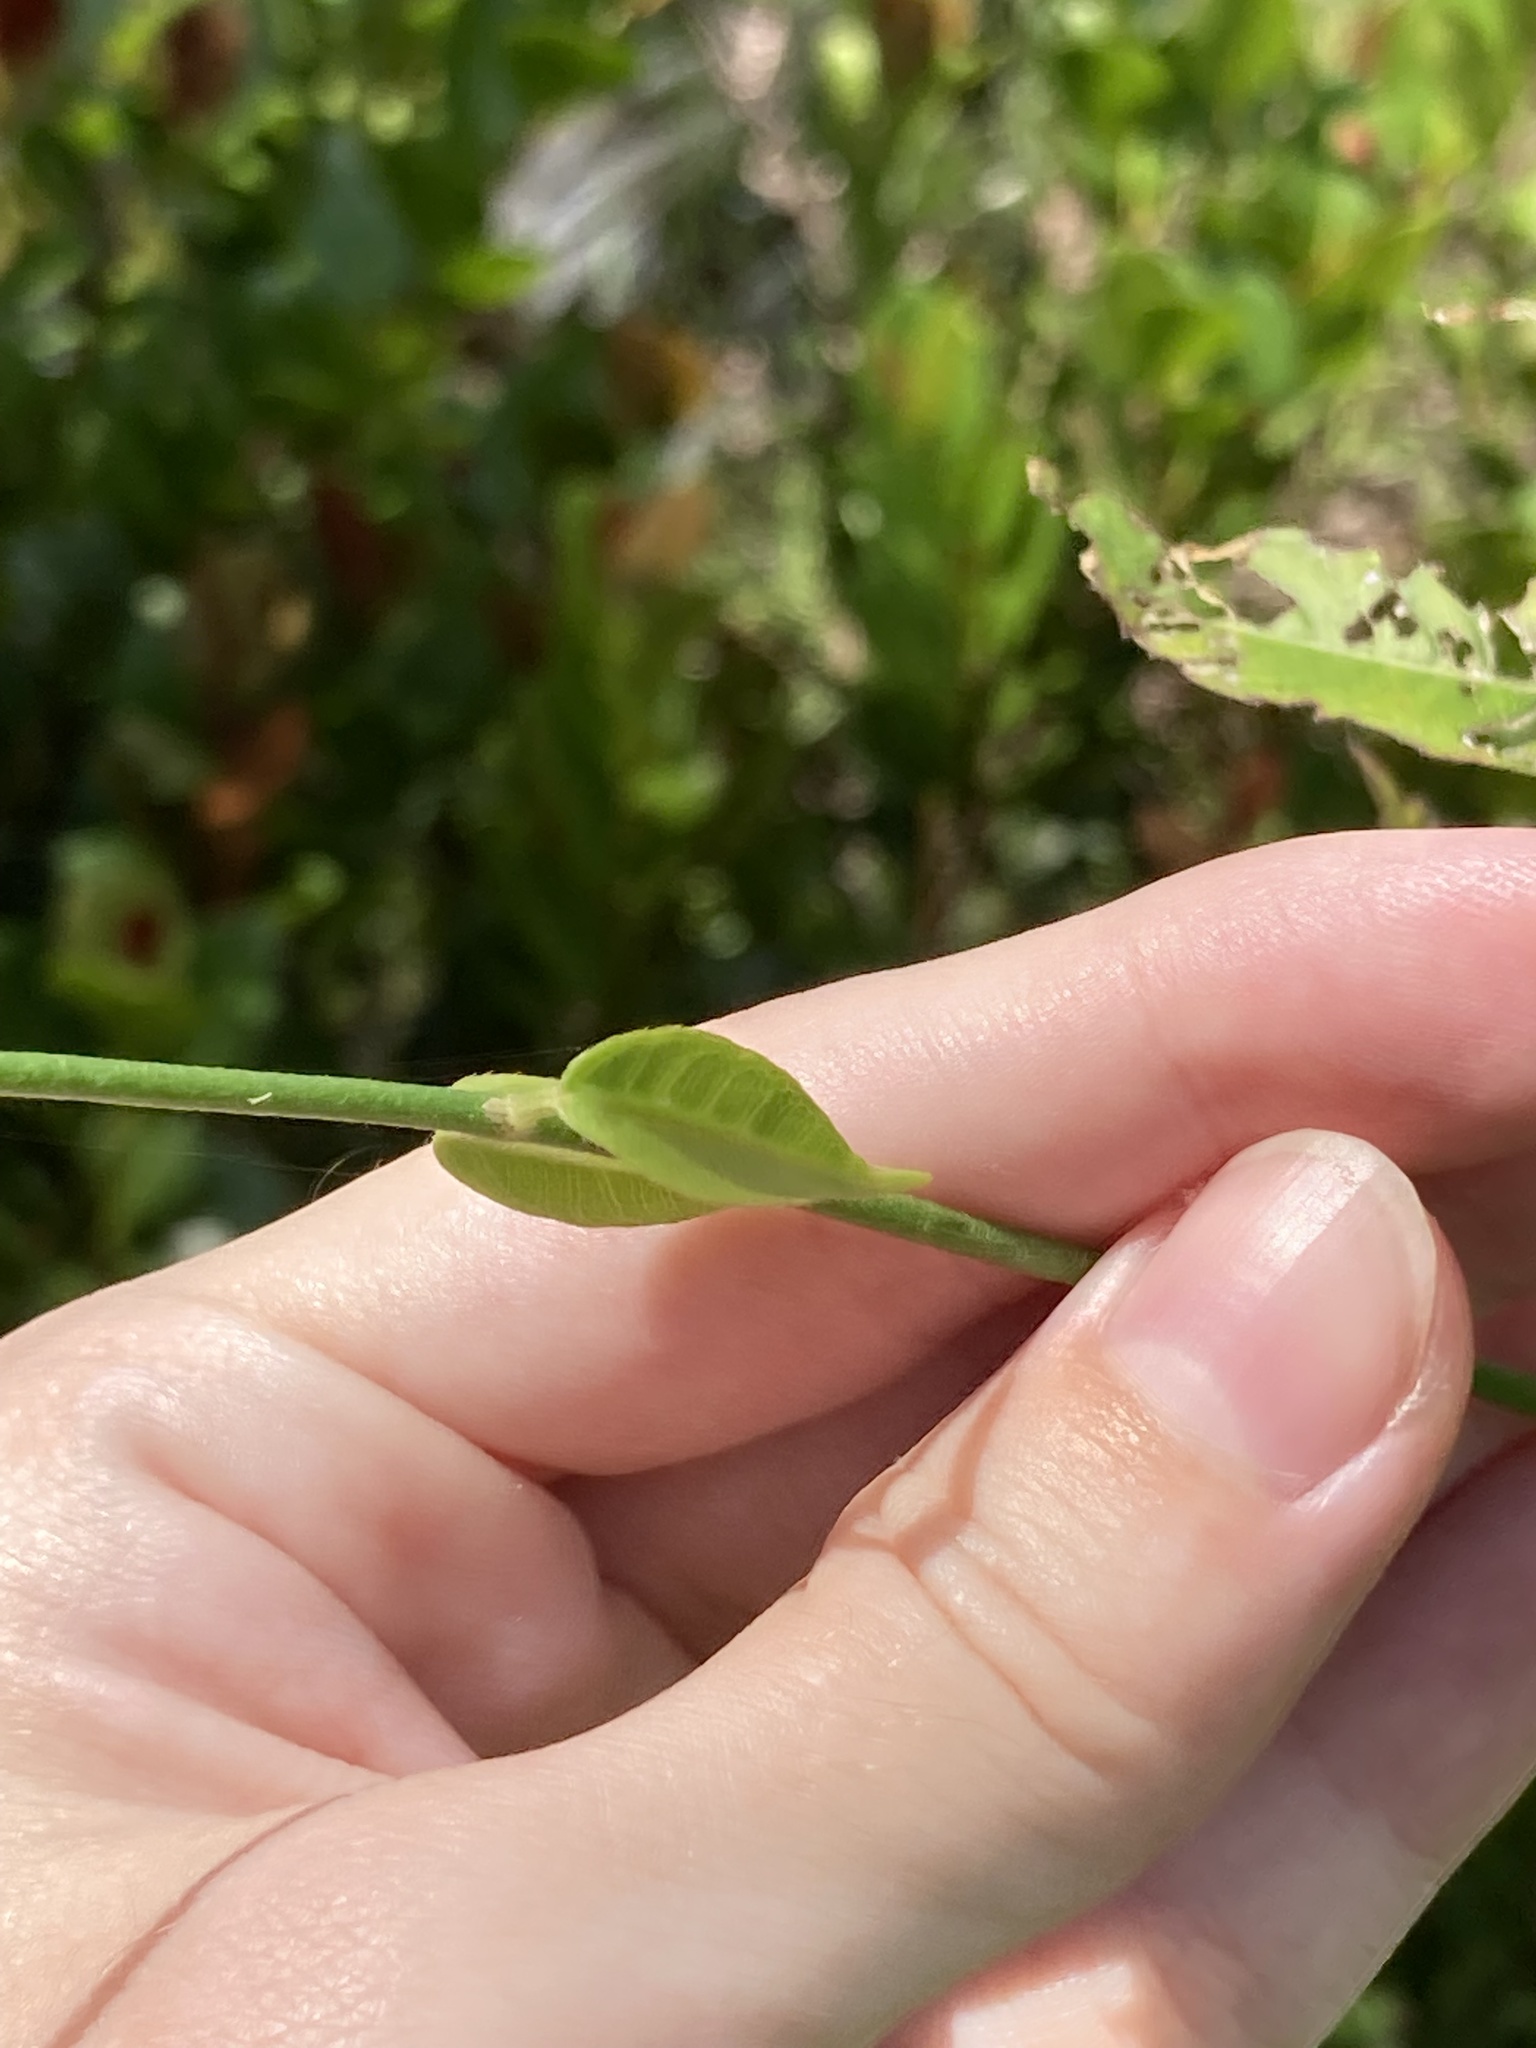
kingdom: Plantae
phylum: Tracheophyta
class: Magnoliopsida
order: Gentianales
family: Apocynaceae
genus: Funastrum
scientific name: Funastrum clausum
